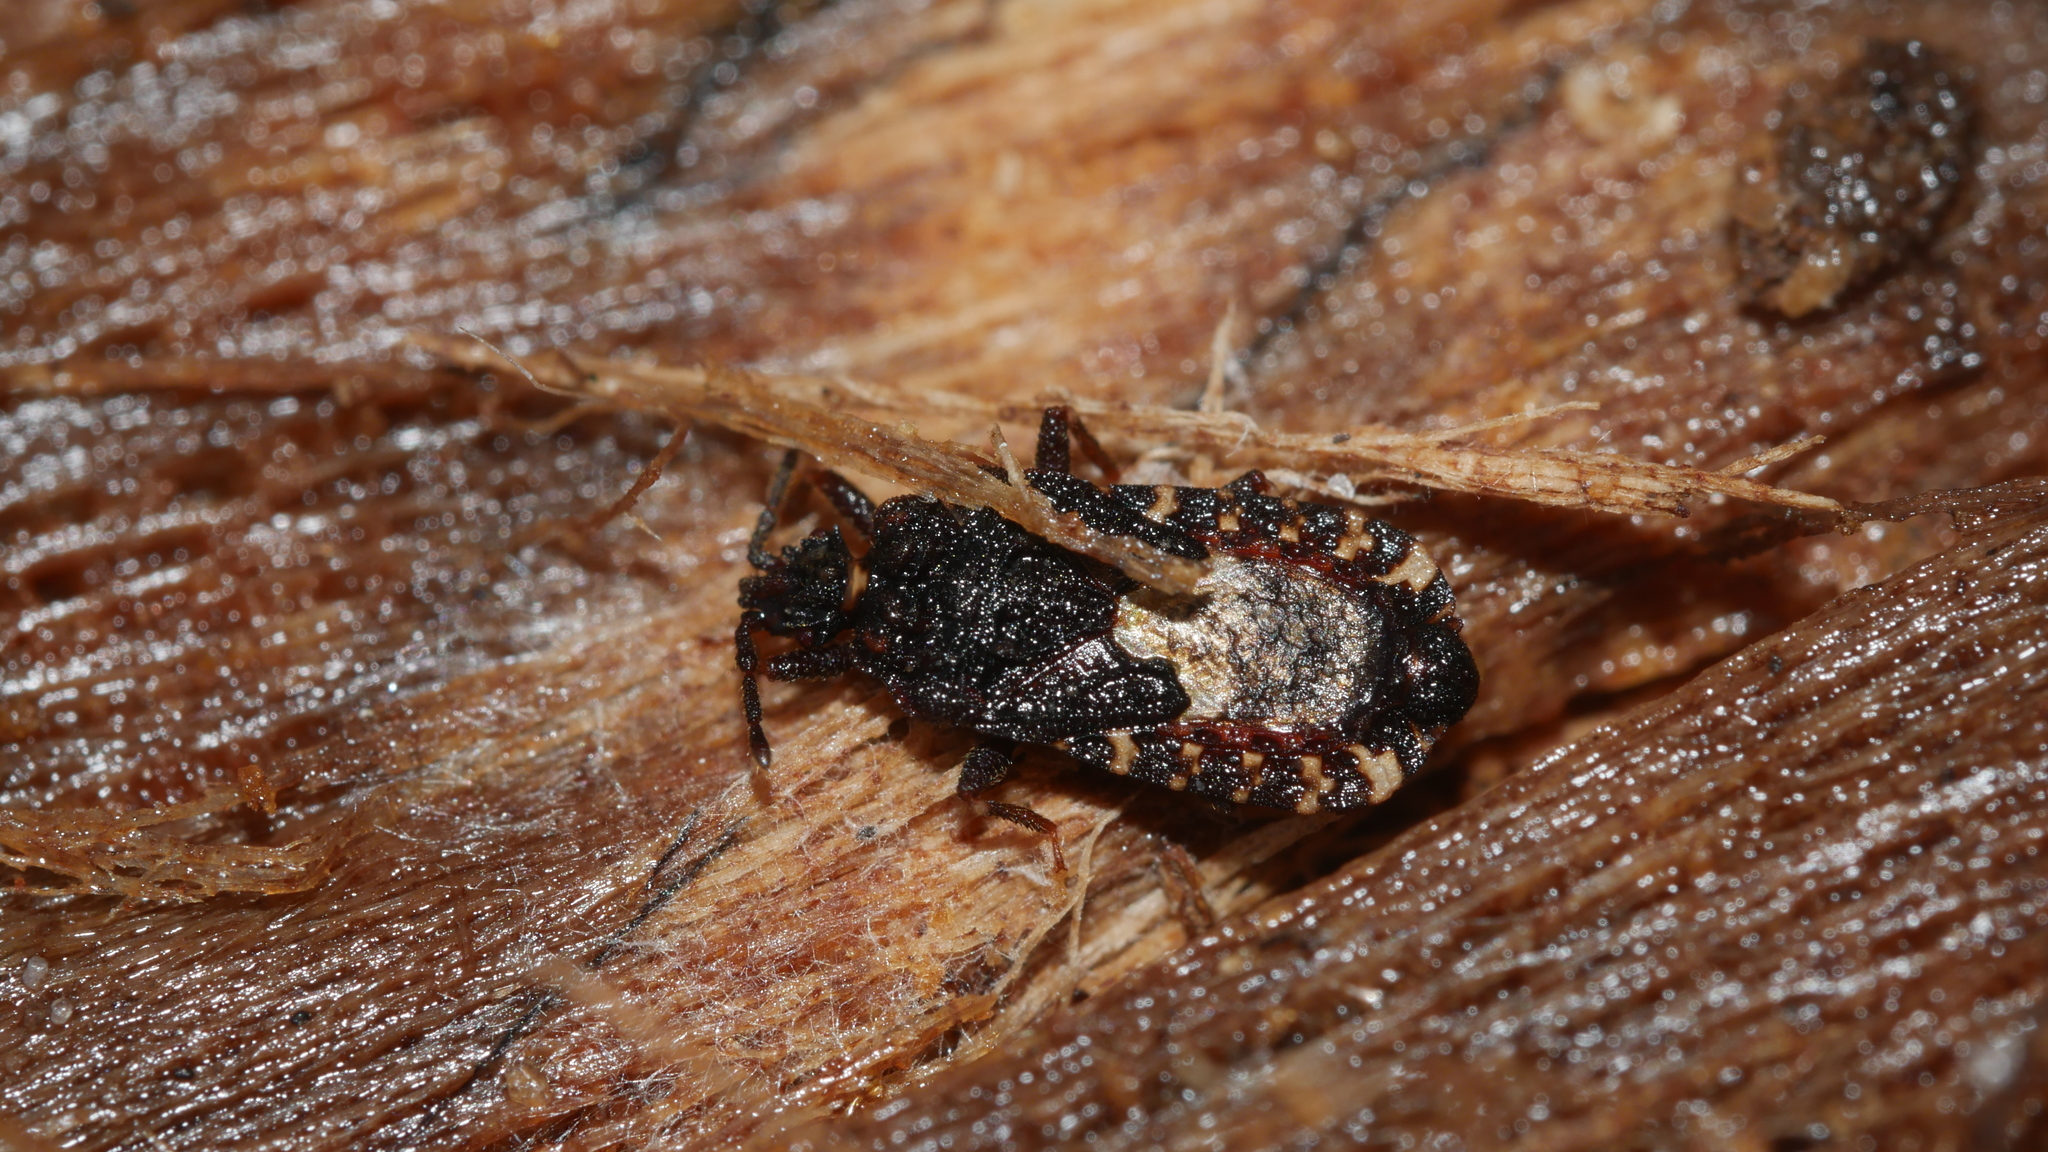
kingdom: Animalia
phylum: Arthropoda
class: Insecta
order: Hemiptera
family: Aradidae
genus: Mezira
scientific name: Mezira
